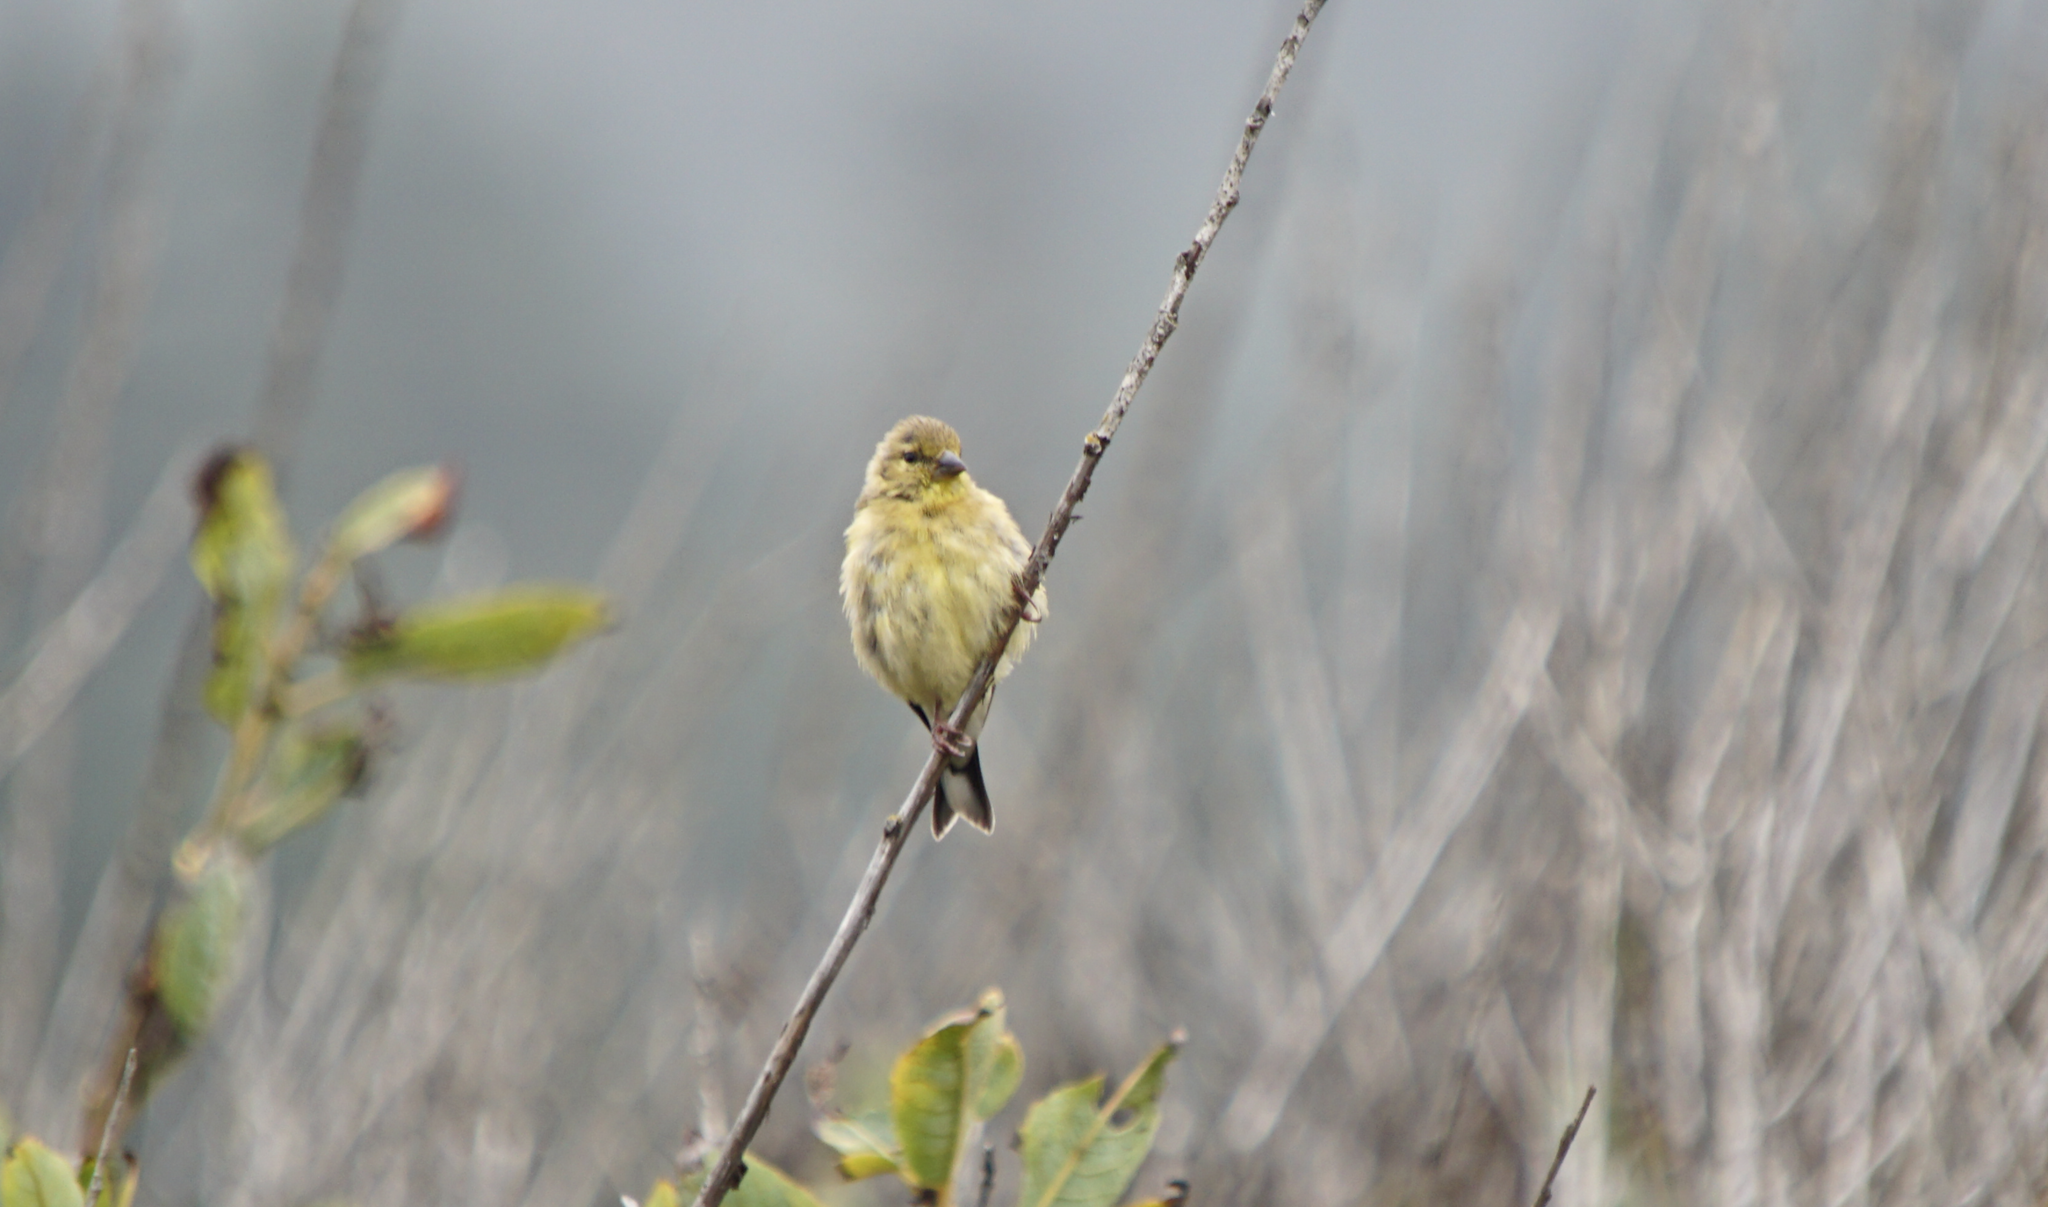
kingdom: Animalia
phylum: Chordata
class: Aves
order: Passeriformes
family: Fringillidae
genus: Spinus
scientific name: Spinus tristis
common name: American goldfinch
